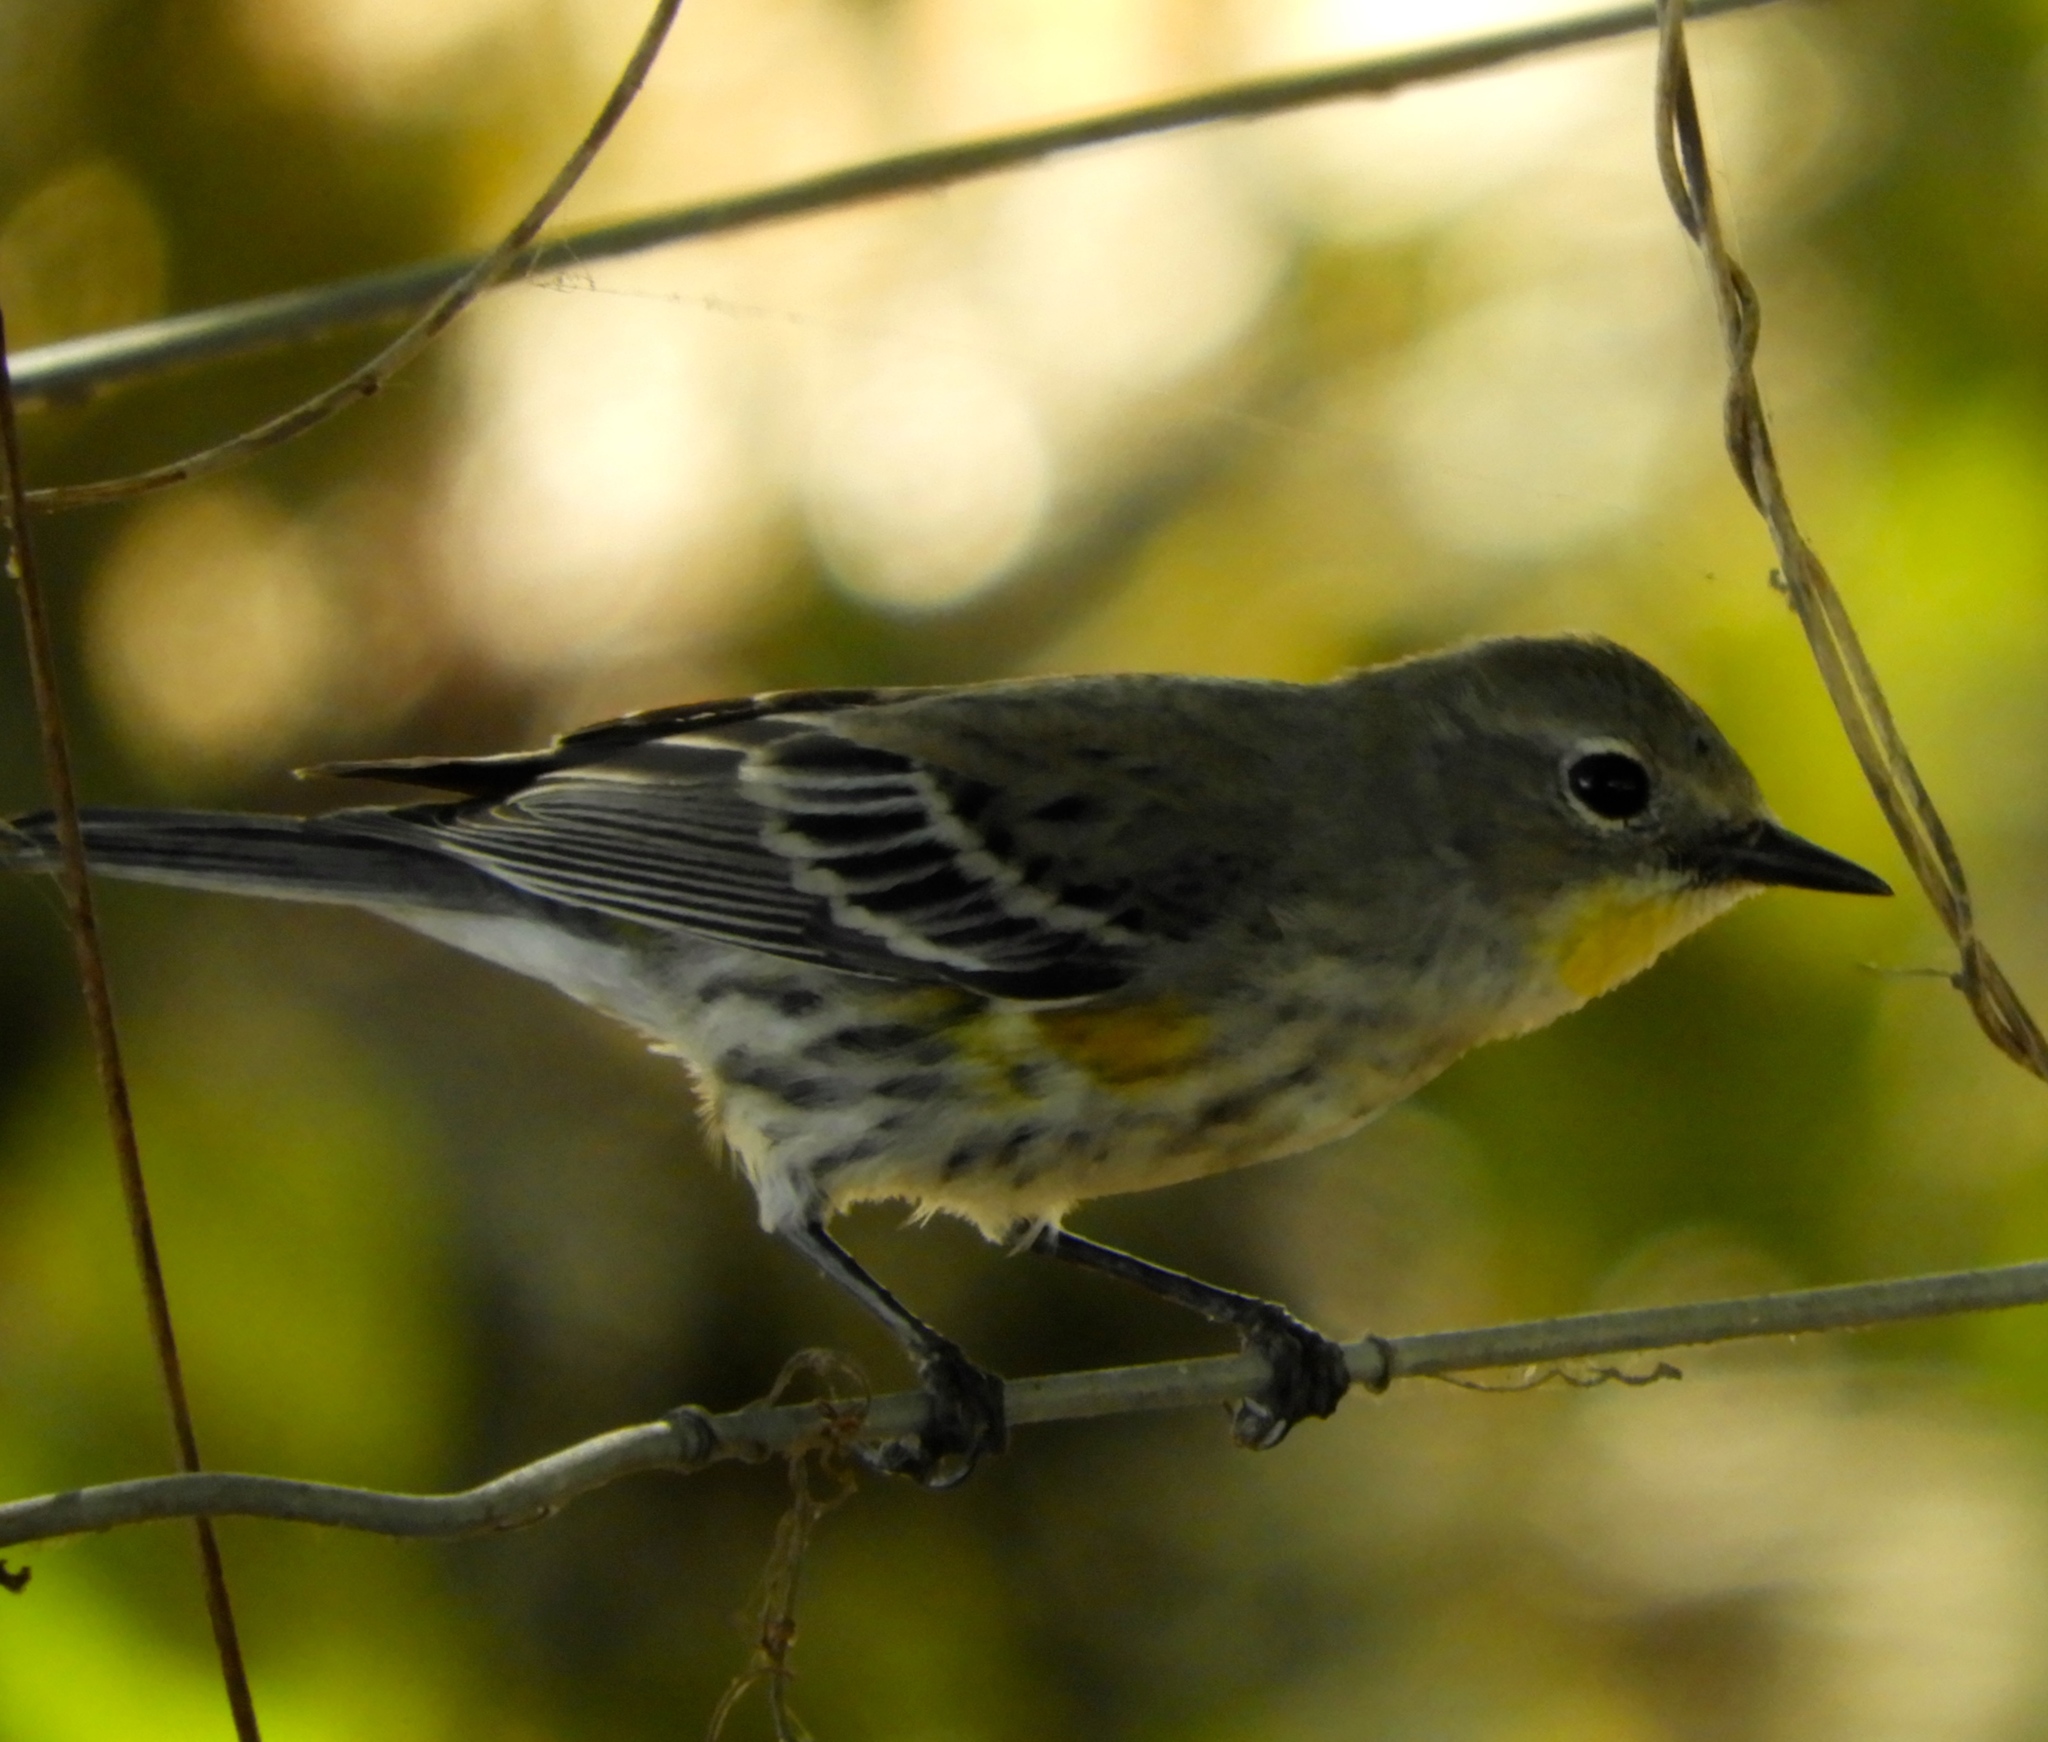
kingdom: Animalia
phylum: Chordata
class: Aves
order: Passeriformes
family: Parulidae
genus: Setophaga
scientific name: Setophaga coronata
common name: Myrtle warbler
